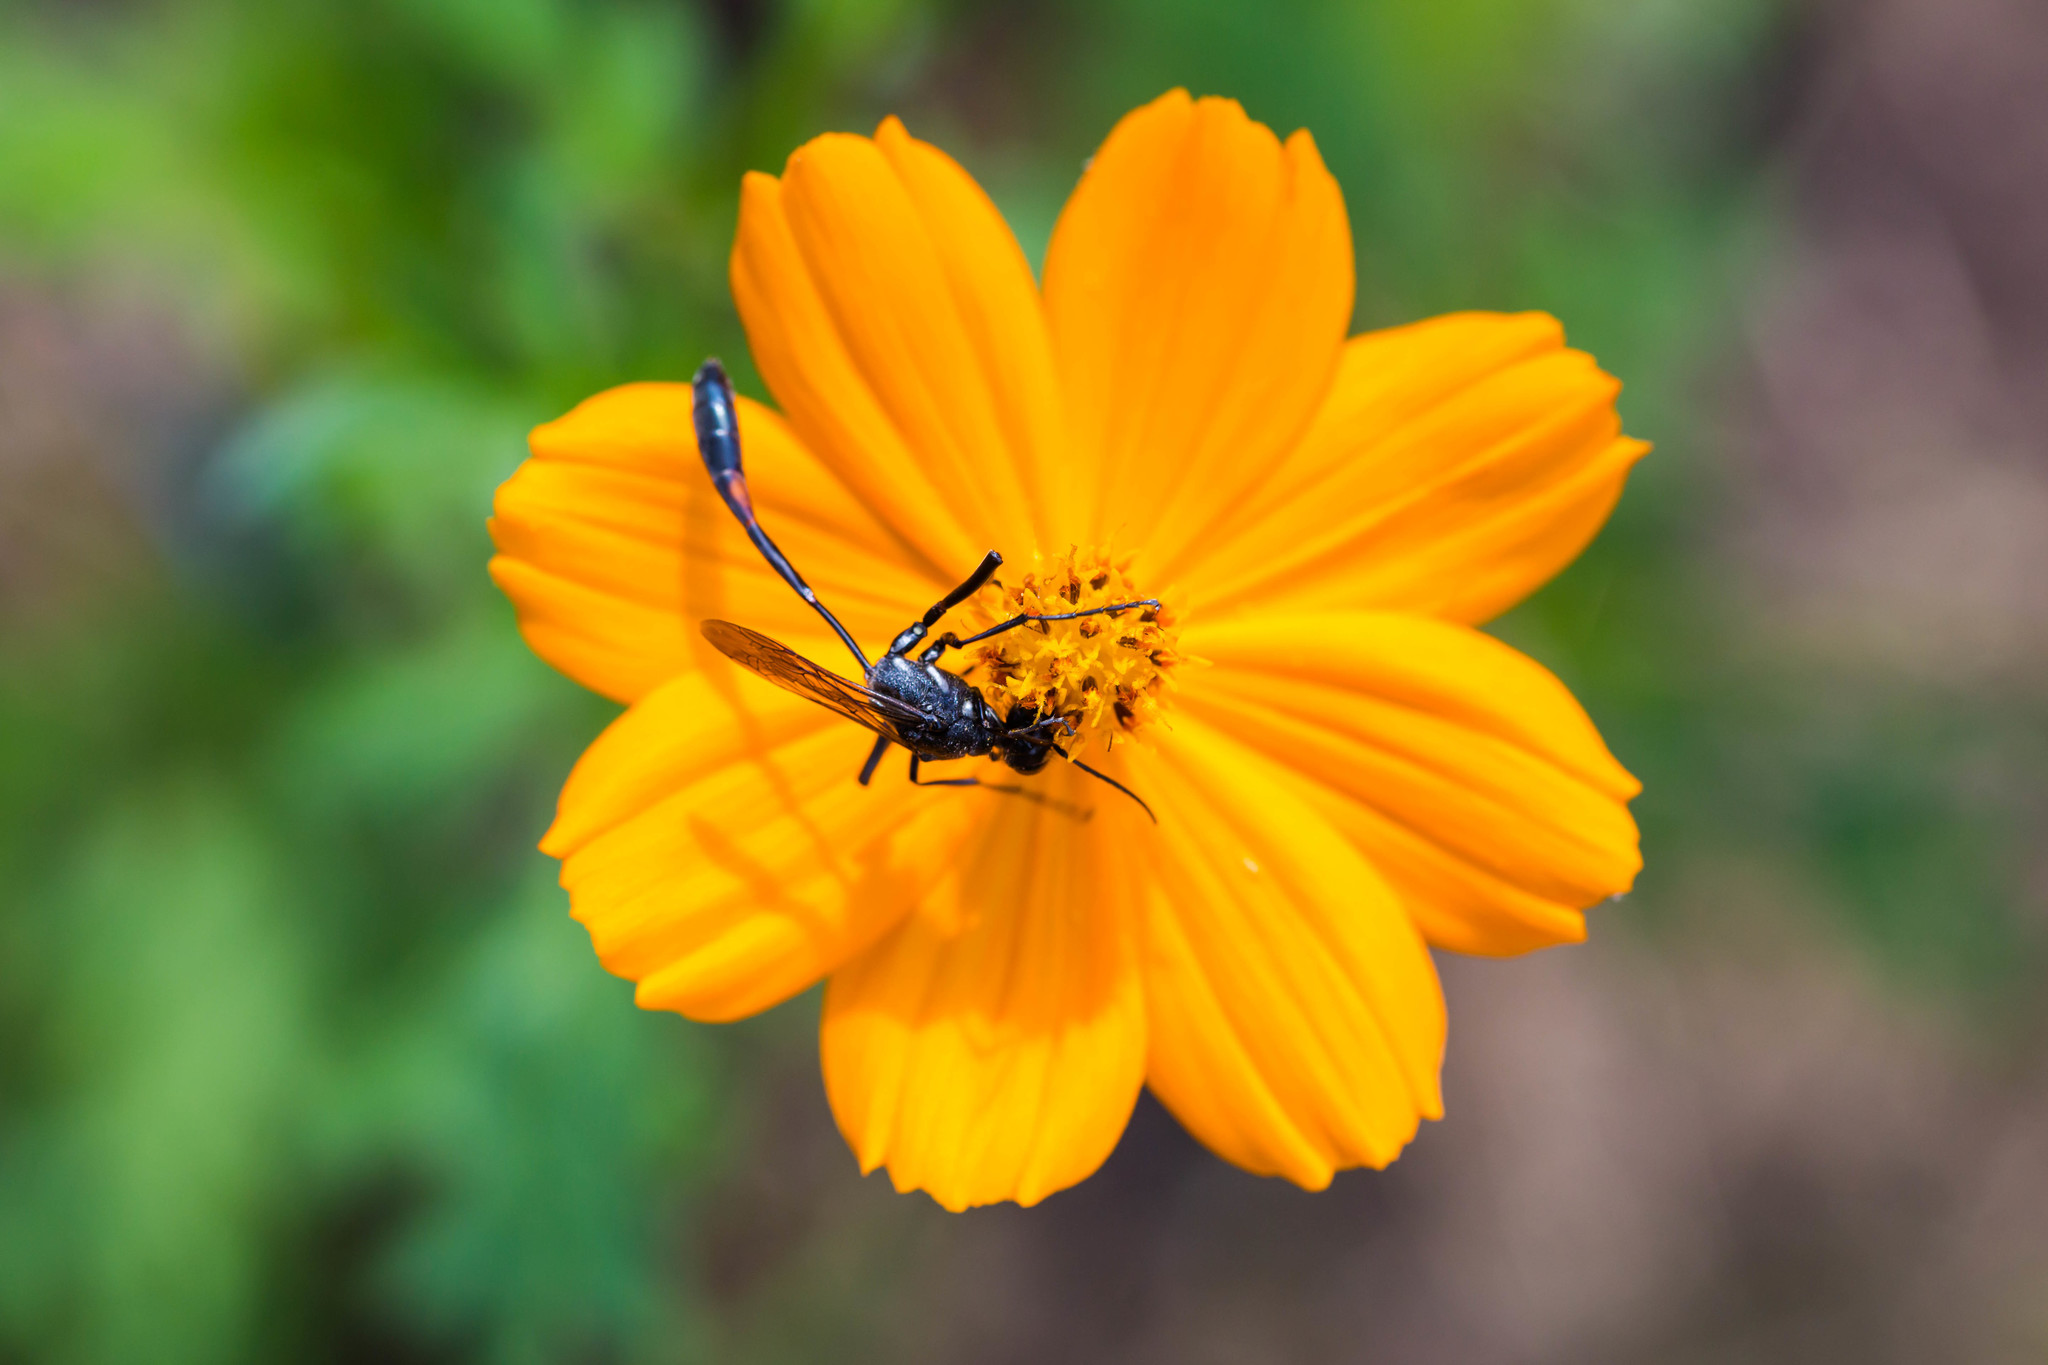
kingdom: Animalia
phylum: Arthropoda
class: Insecta
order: Hymenoptera
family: Sphecidae
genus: Ammophila
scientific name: Ammophila procera
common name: Common thread-waisted wasp
